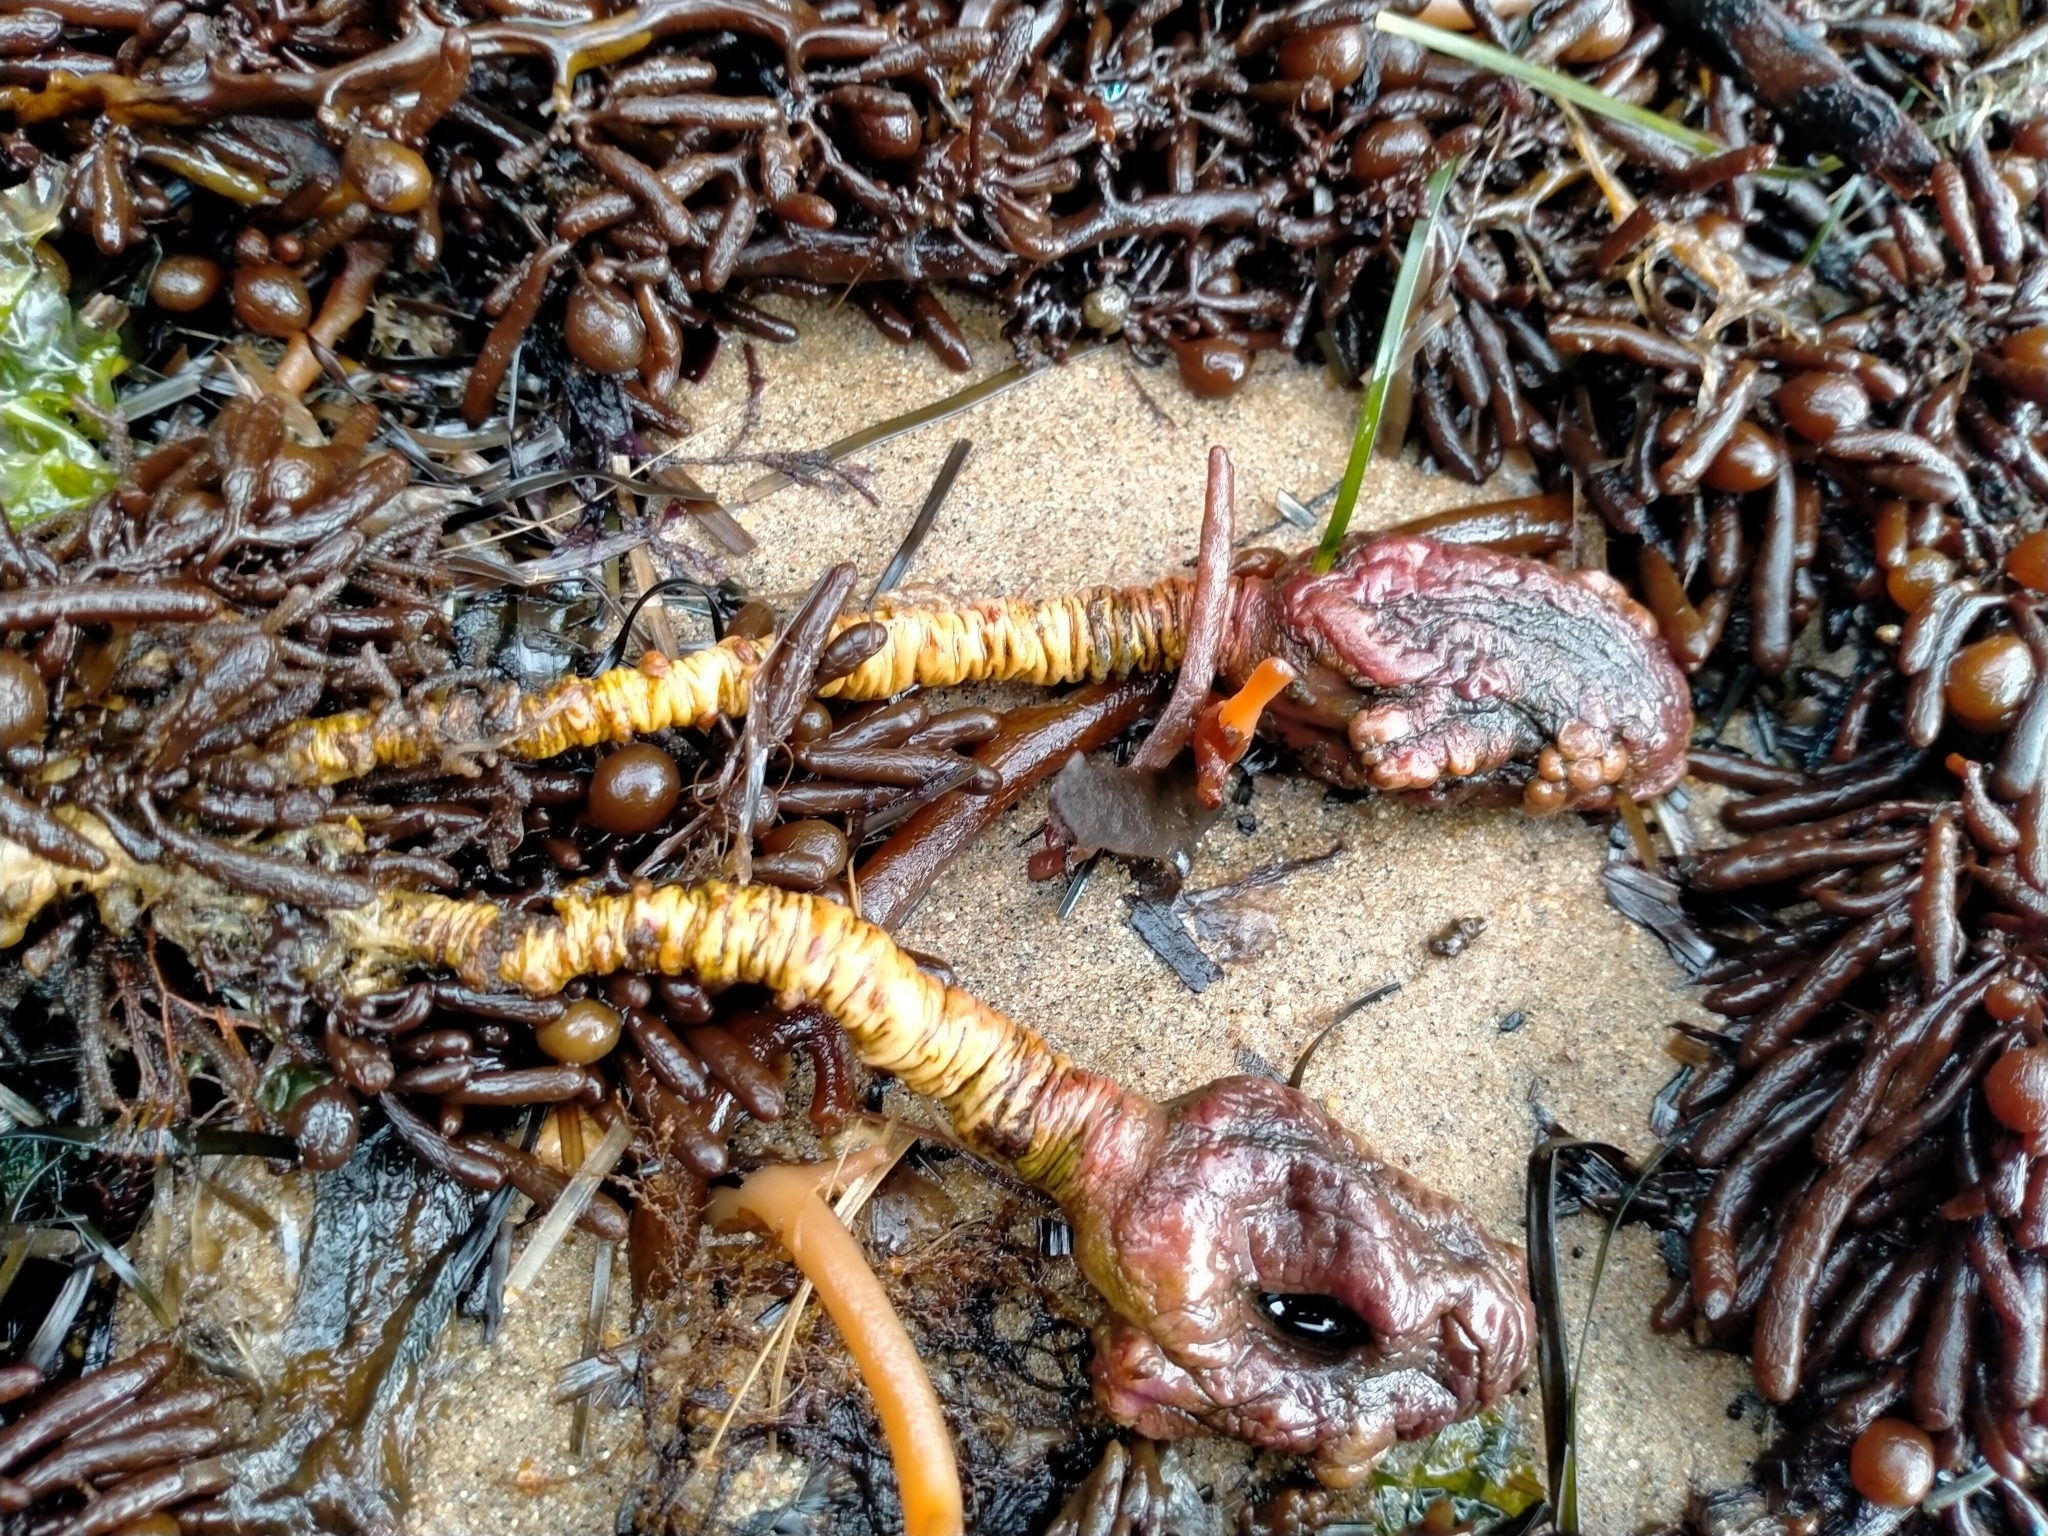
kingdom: Animalia
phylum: Chordata
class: Ascidiacea
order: Stolidobranchia
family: Pyuridae
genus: Pyura
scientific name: Pyura pachydermatina
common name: Sea tulip
